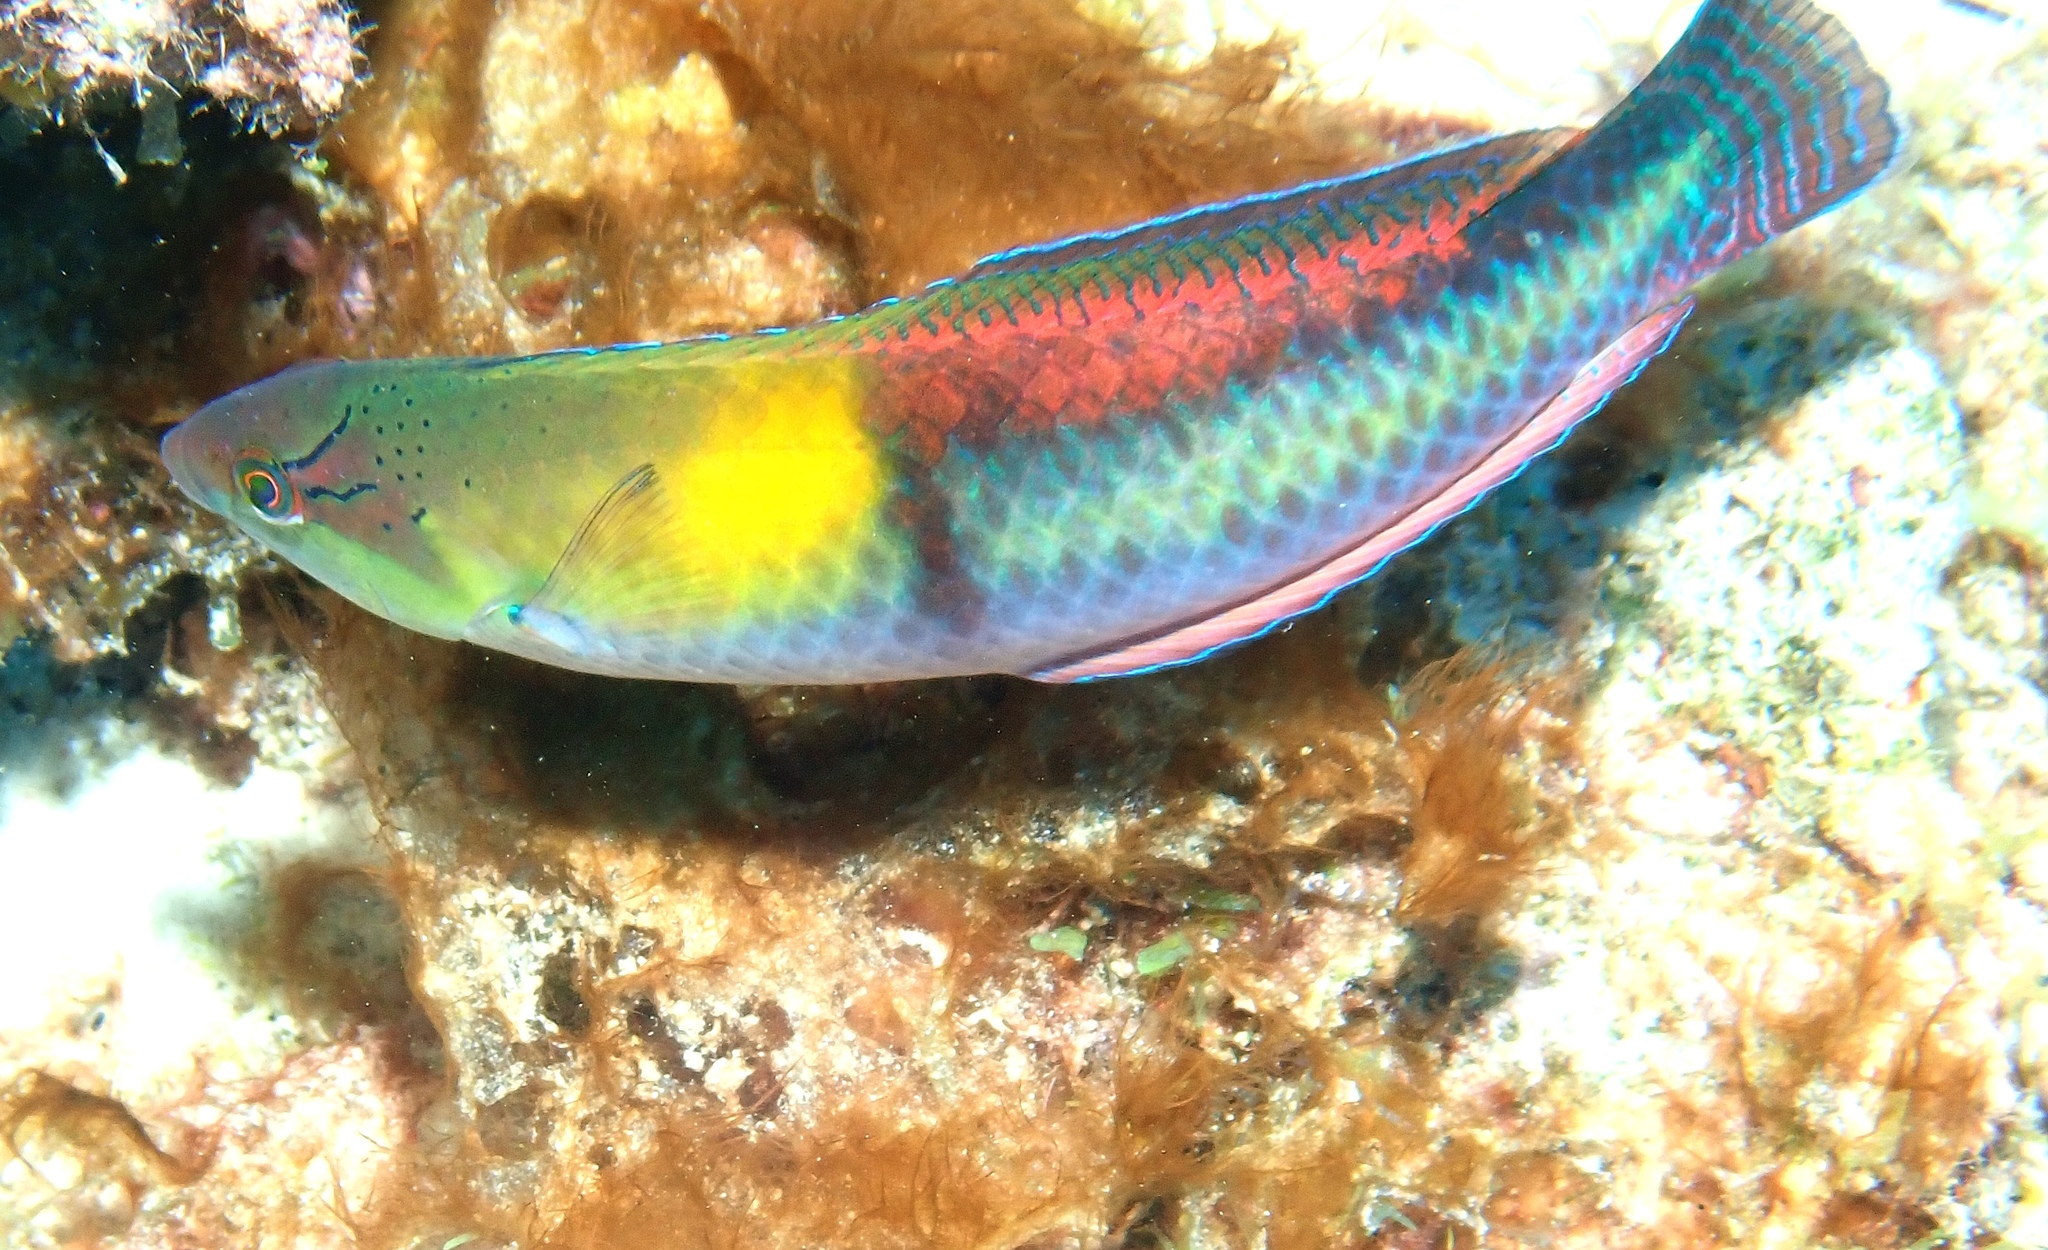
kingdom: Animalia
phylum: Chordata
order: Perciformes
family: Labridae
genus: Halichoeres
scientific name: Halichoeres garnoti
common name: Yellowhead wrasse
